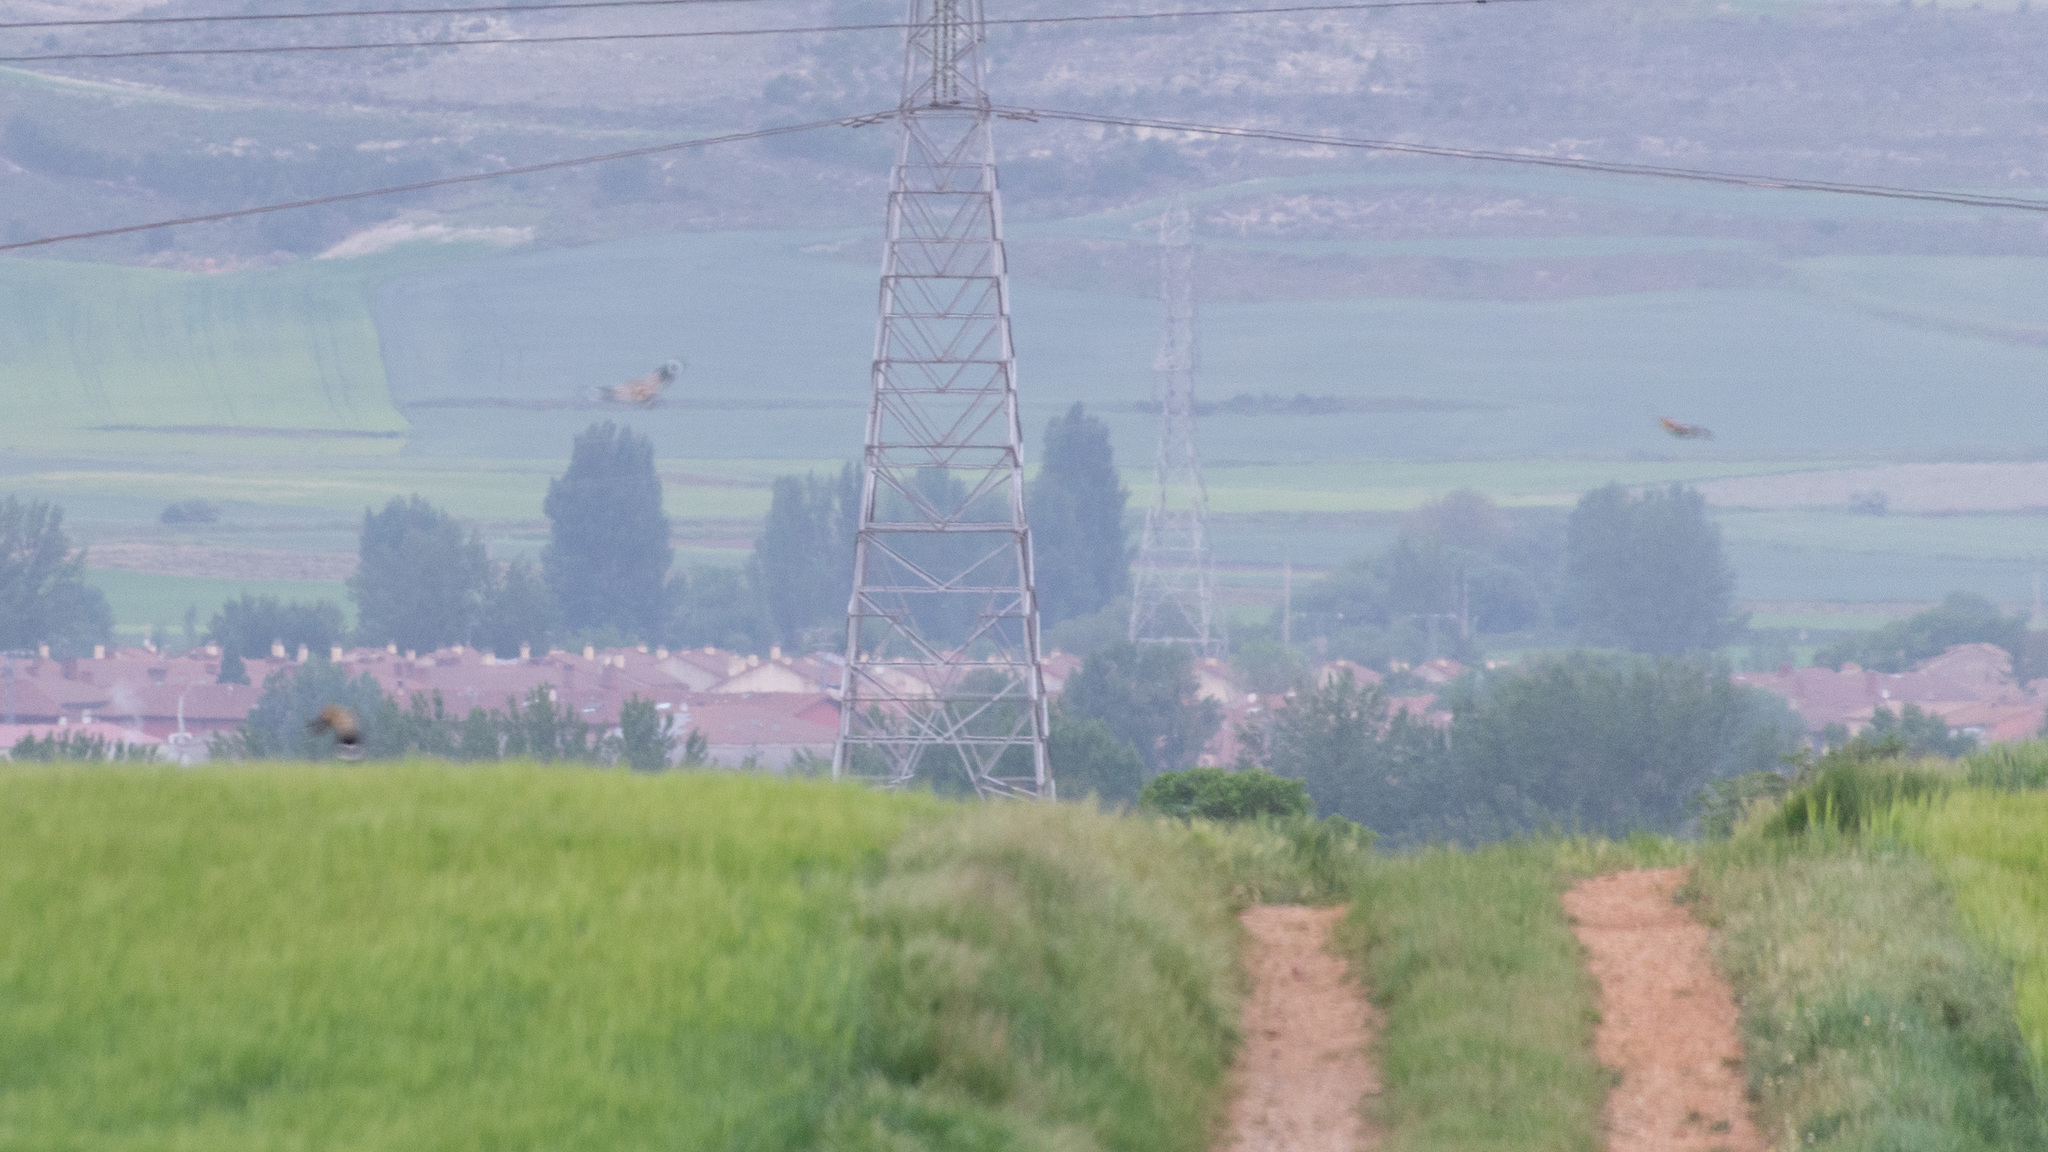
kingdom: Animalia
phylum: Chordata
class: Aves
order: Bucerotiformes
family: Upupidae
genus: Upupa
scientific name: Upupa epops
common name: Eurasian hoopoe
